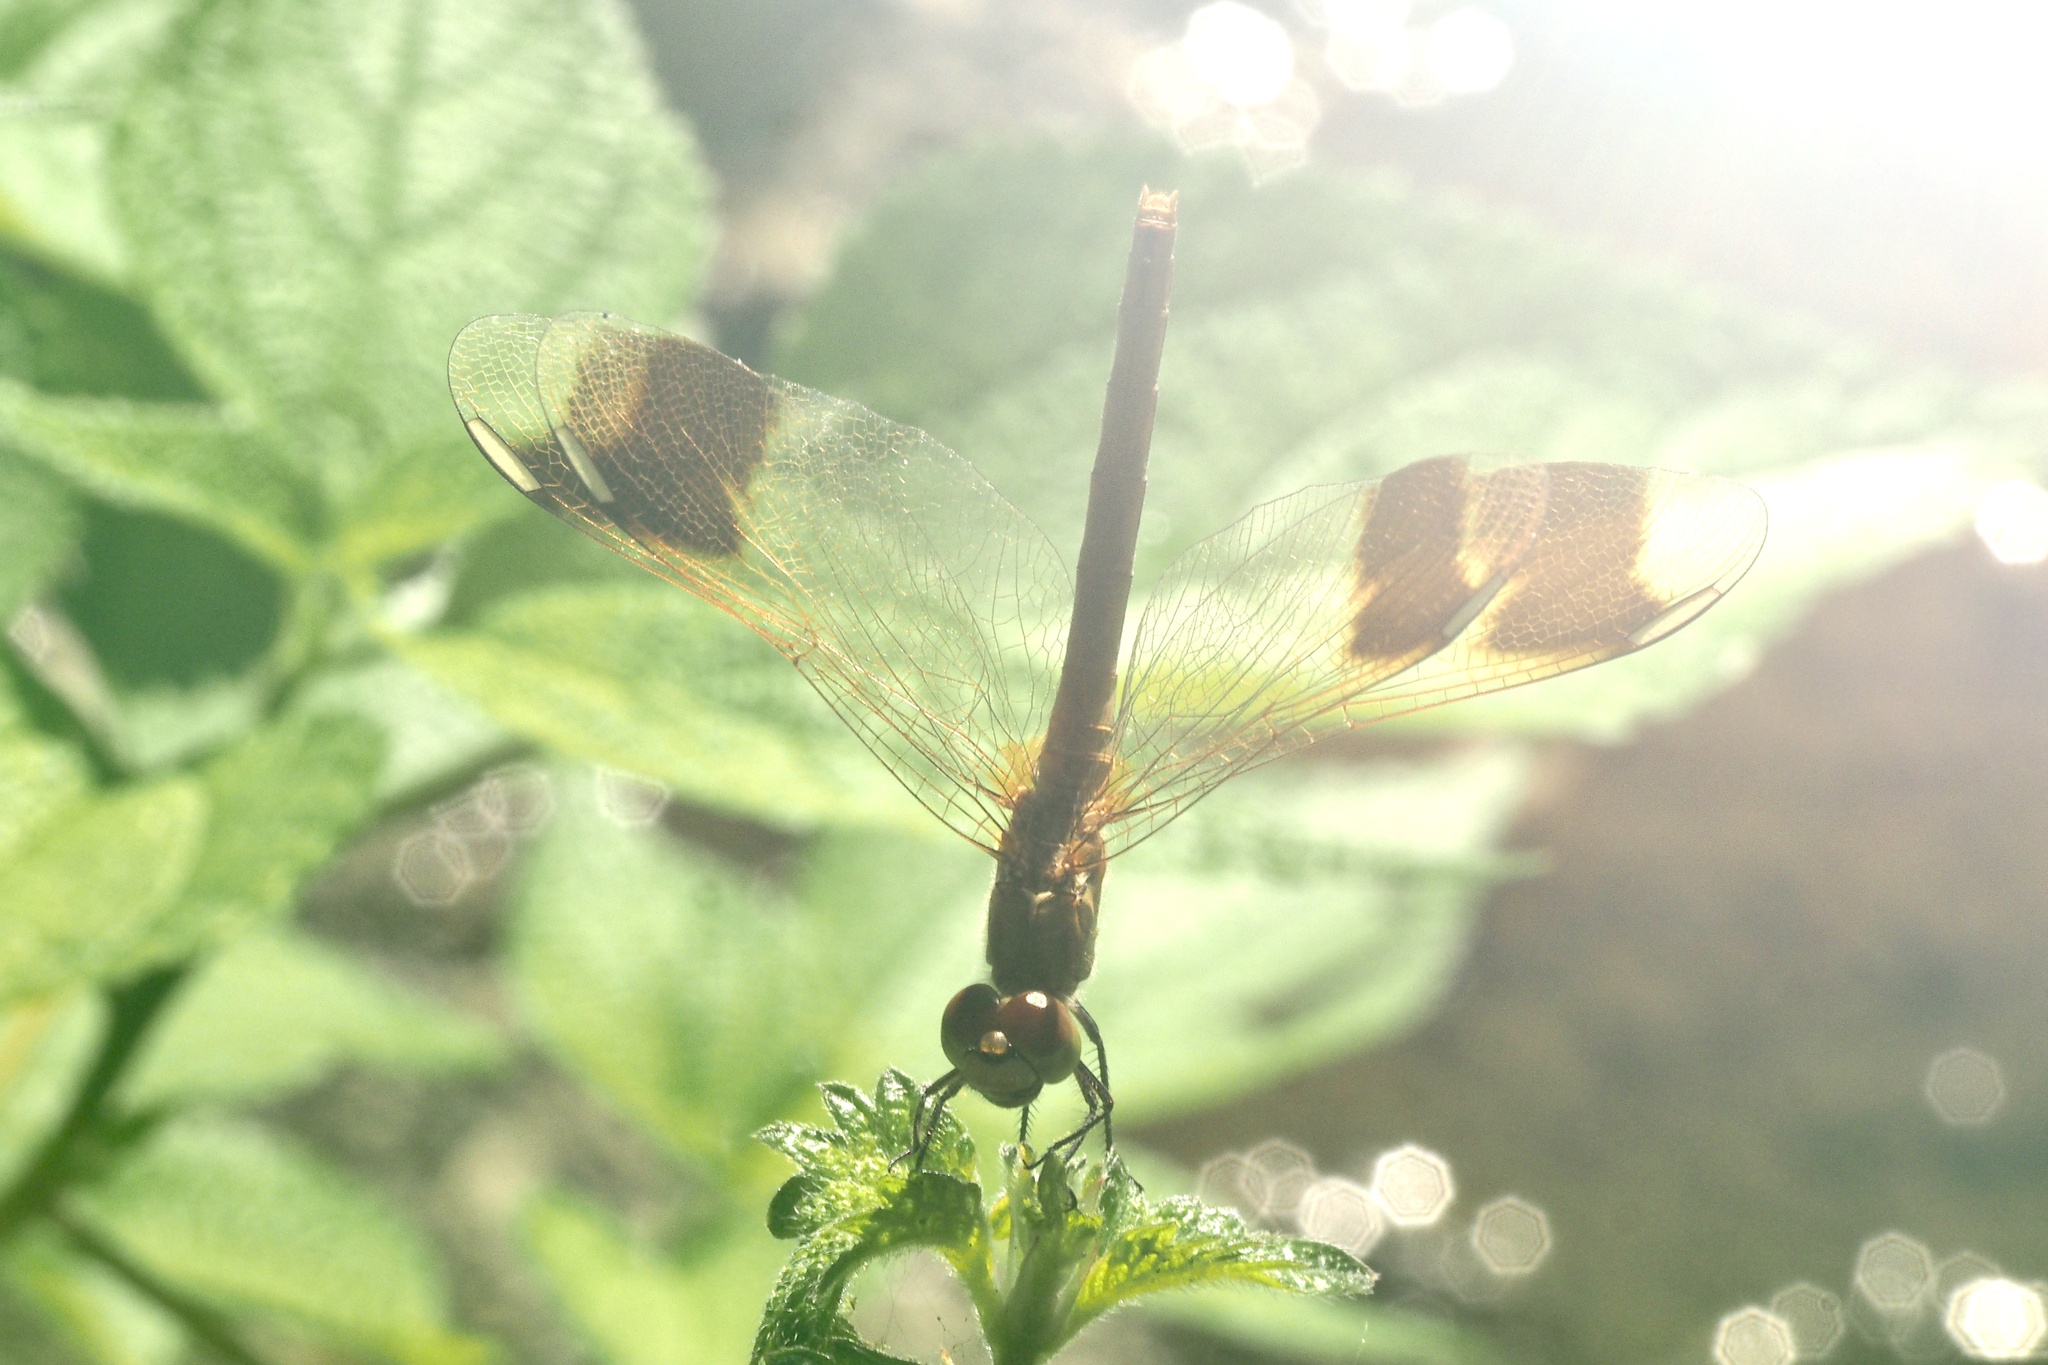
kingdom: Animalia
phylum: Arthropoda
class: Insecta
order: Odonata
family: Libellulidae
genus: Sympetrum
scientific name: Sympetrum pedemontanum
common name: Banded darter
